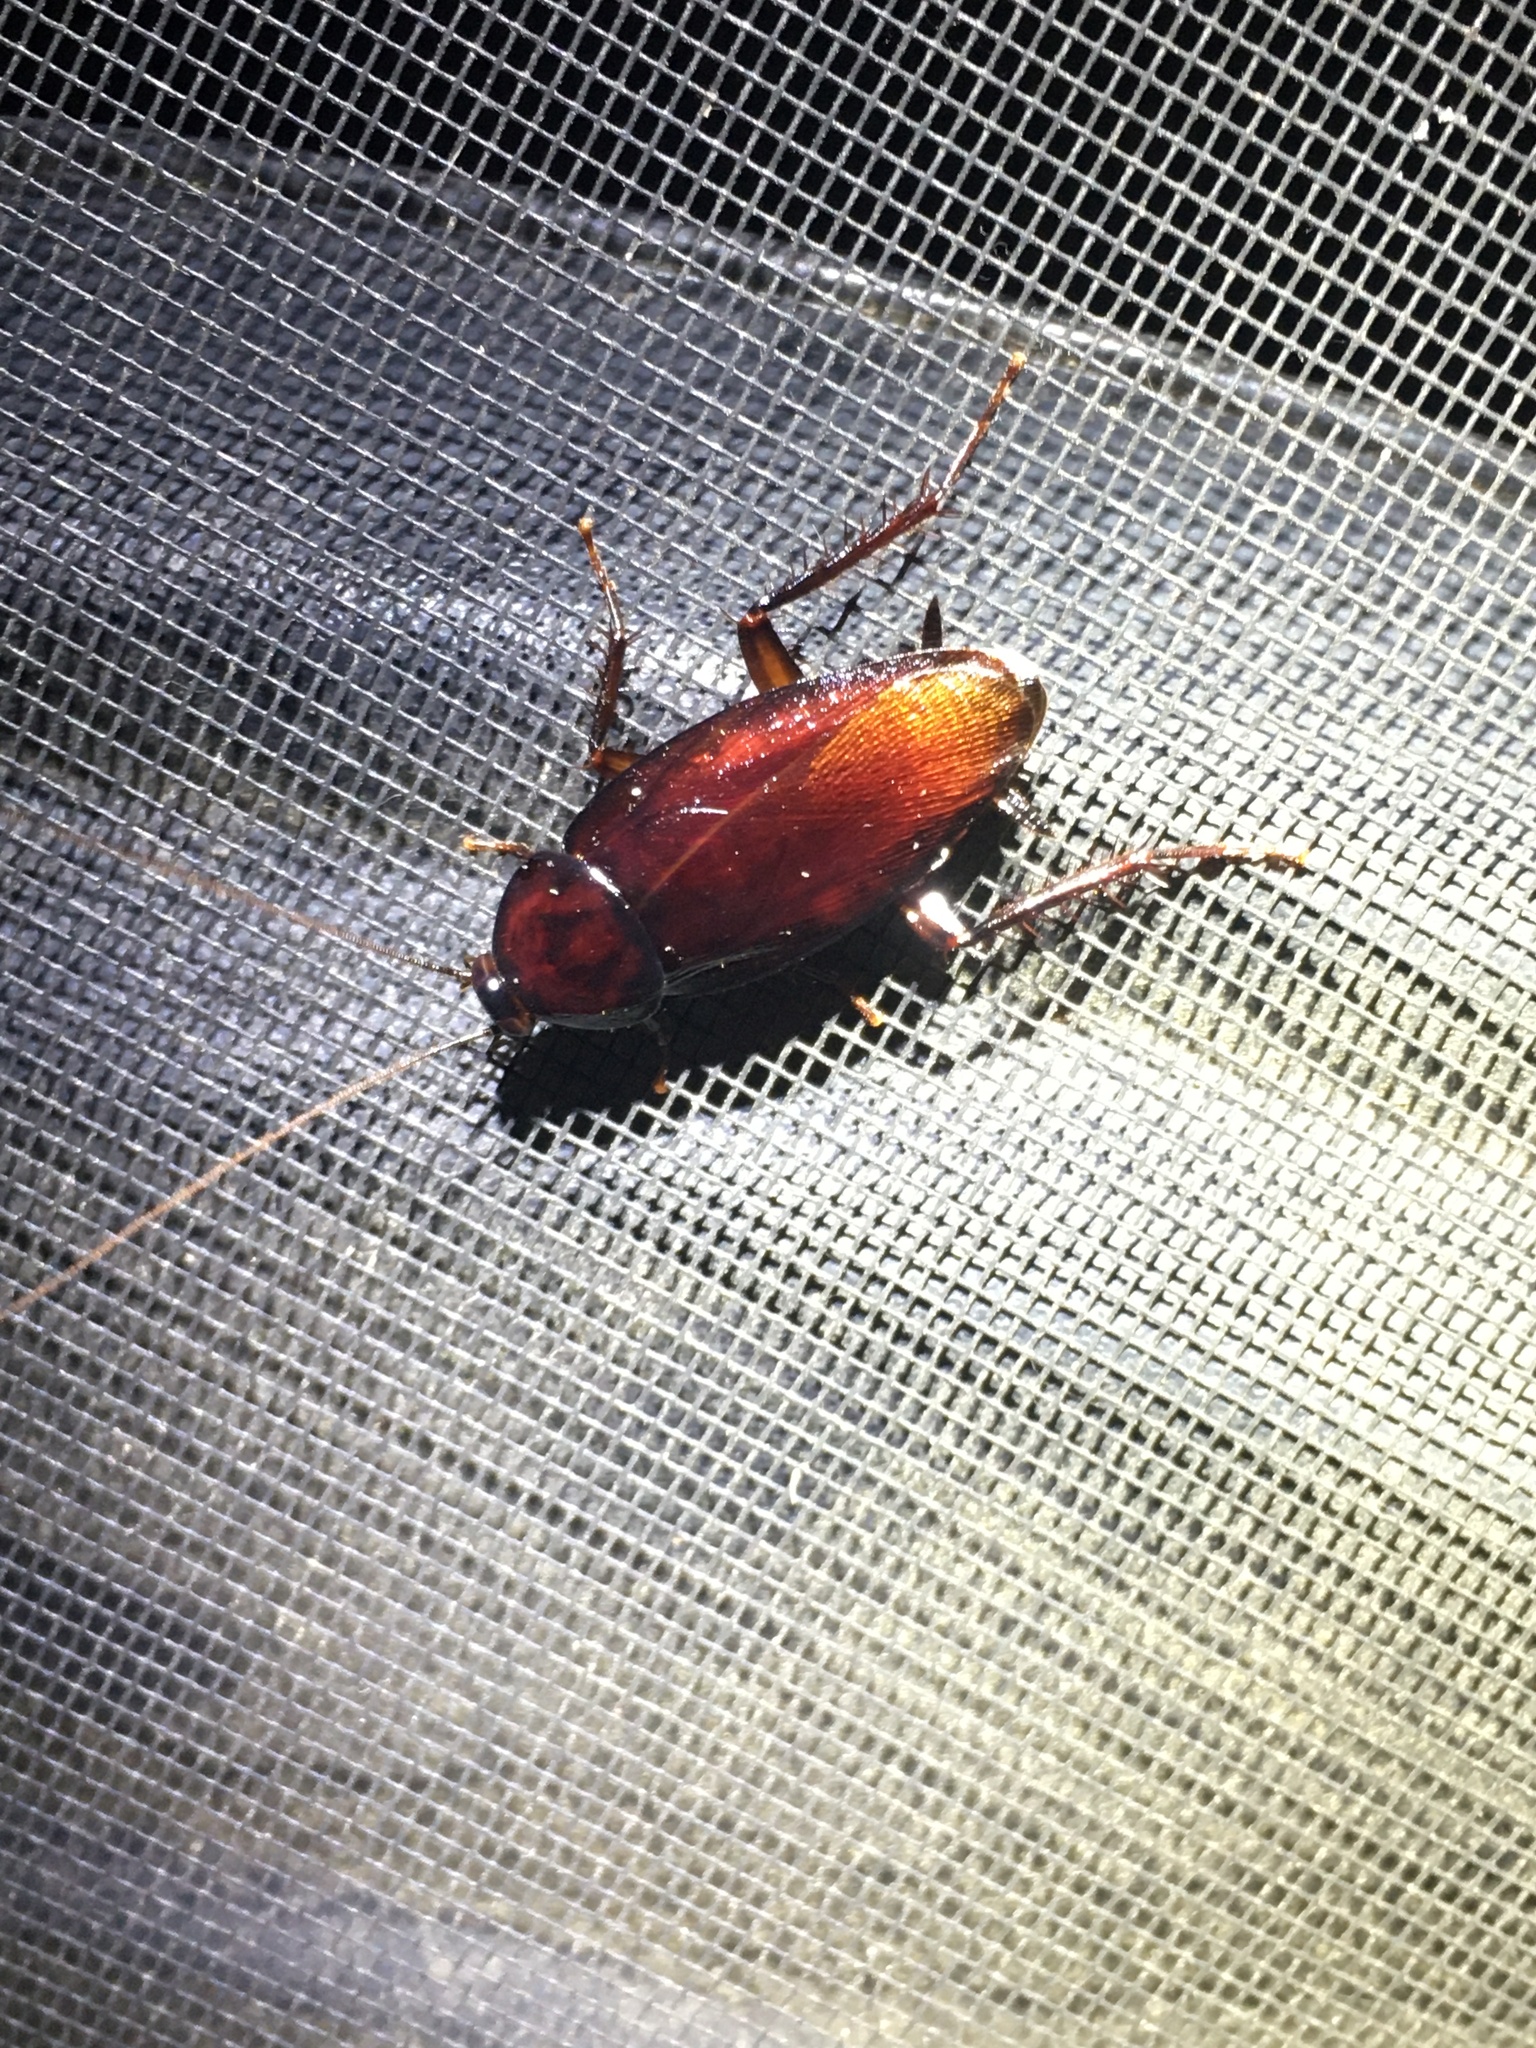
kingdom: Animalia
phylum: Arthropoda
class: Insecta
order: Blattodea
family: Blattidae
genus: Periplaneta
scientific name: Periplaneta fuliginosa
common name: Smokeybrown cockroad
